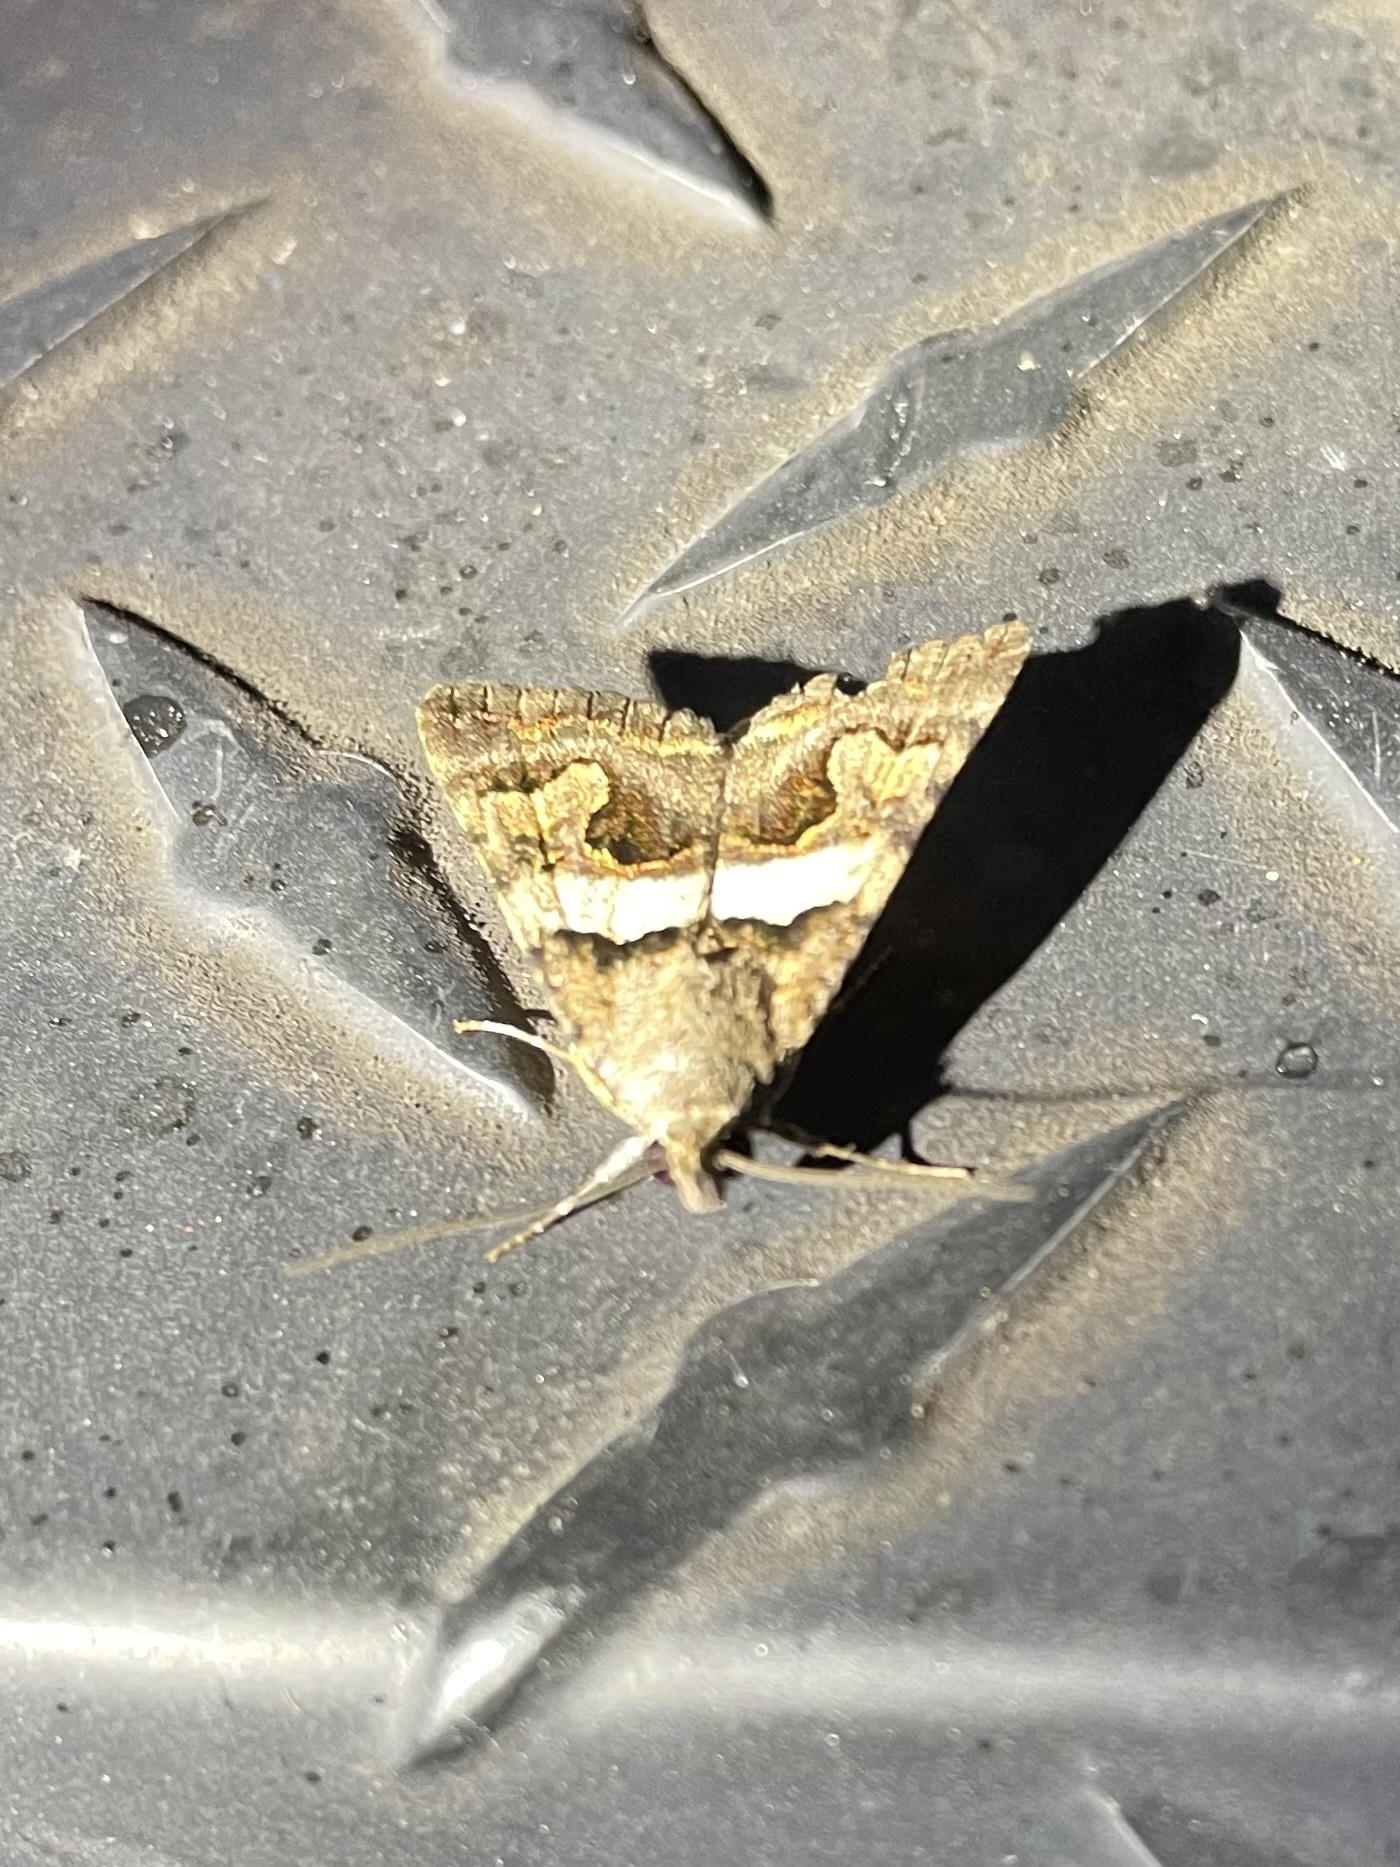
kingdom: Animalia
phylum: Arthropoda
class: Insecta
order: Lepidoptera
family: Erebidae
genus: Bulia
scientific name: Bulia deducta
